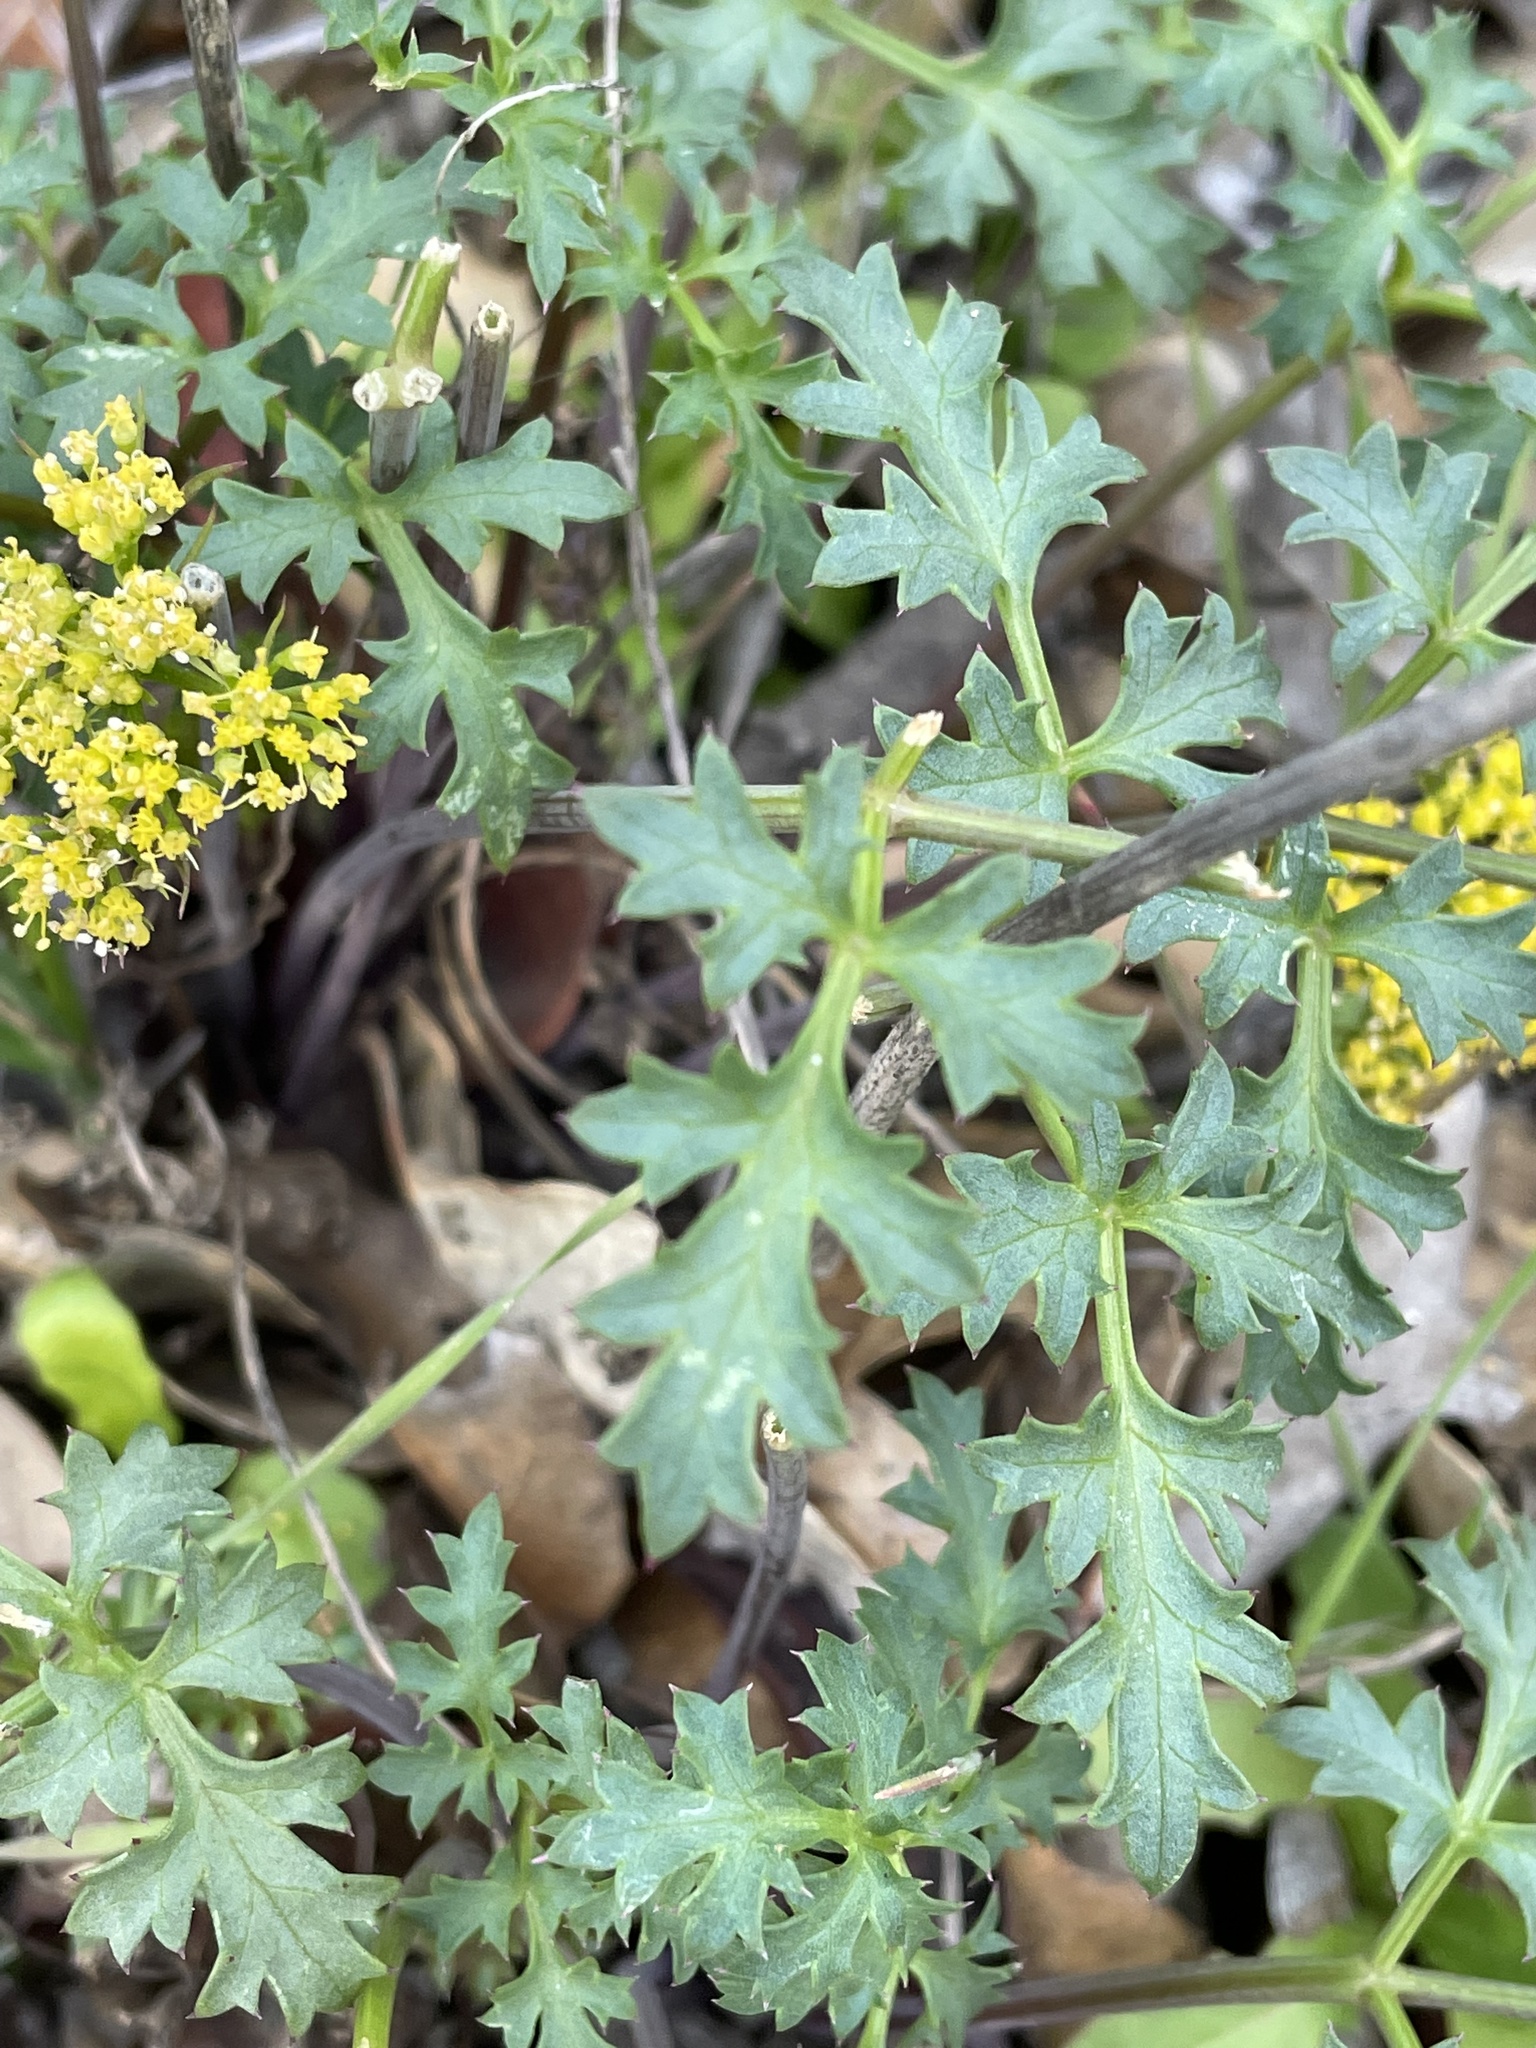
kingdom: Plantae
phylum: Tracheophyta
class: Magnoliopsida
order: Apiales
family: Apiaceae
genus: Lomatium
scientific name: Lomatium parvifolium
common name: Small-leaf lomatium
